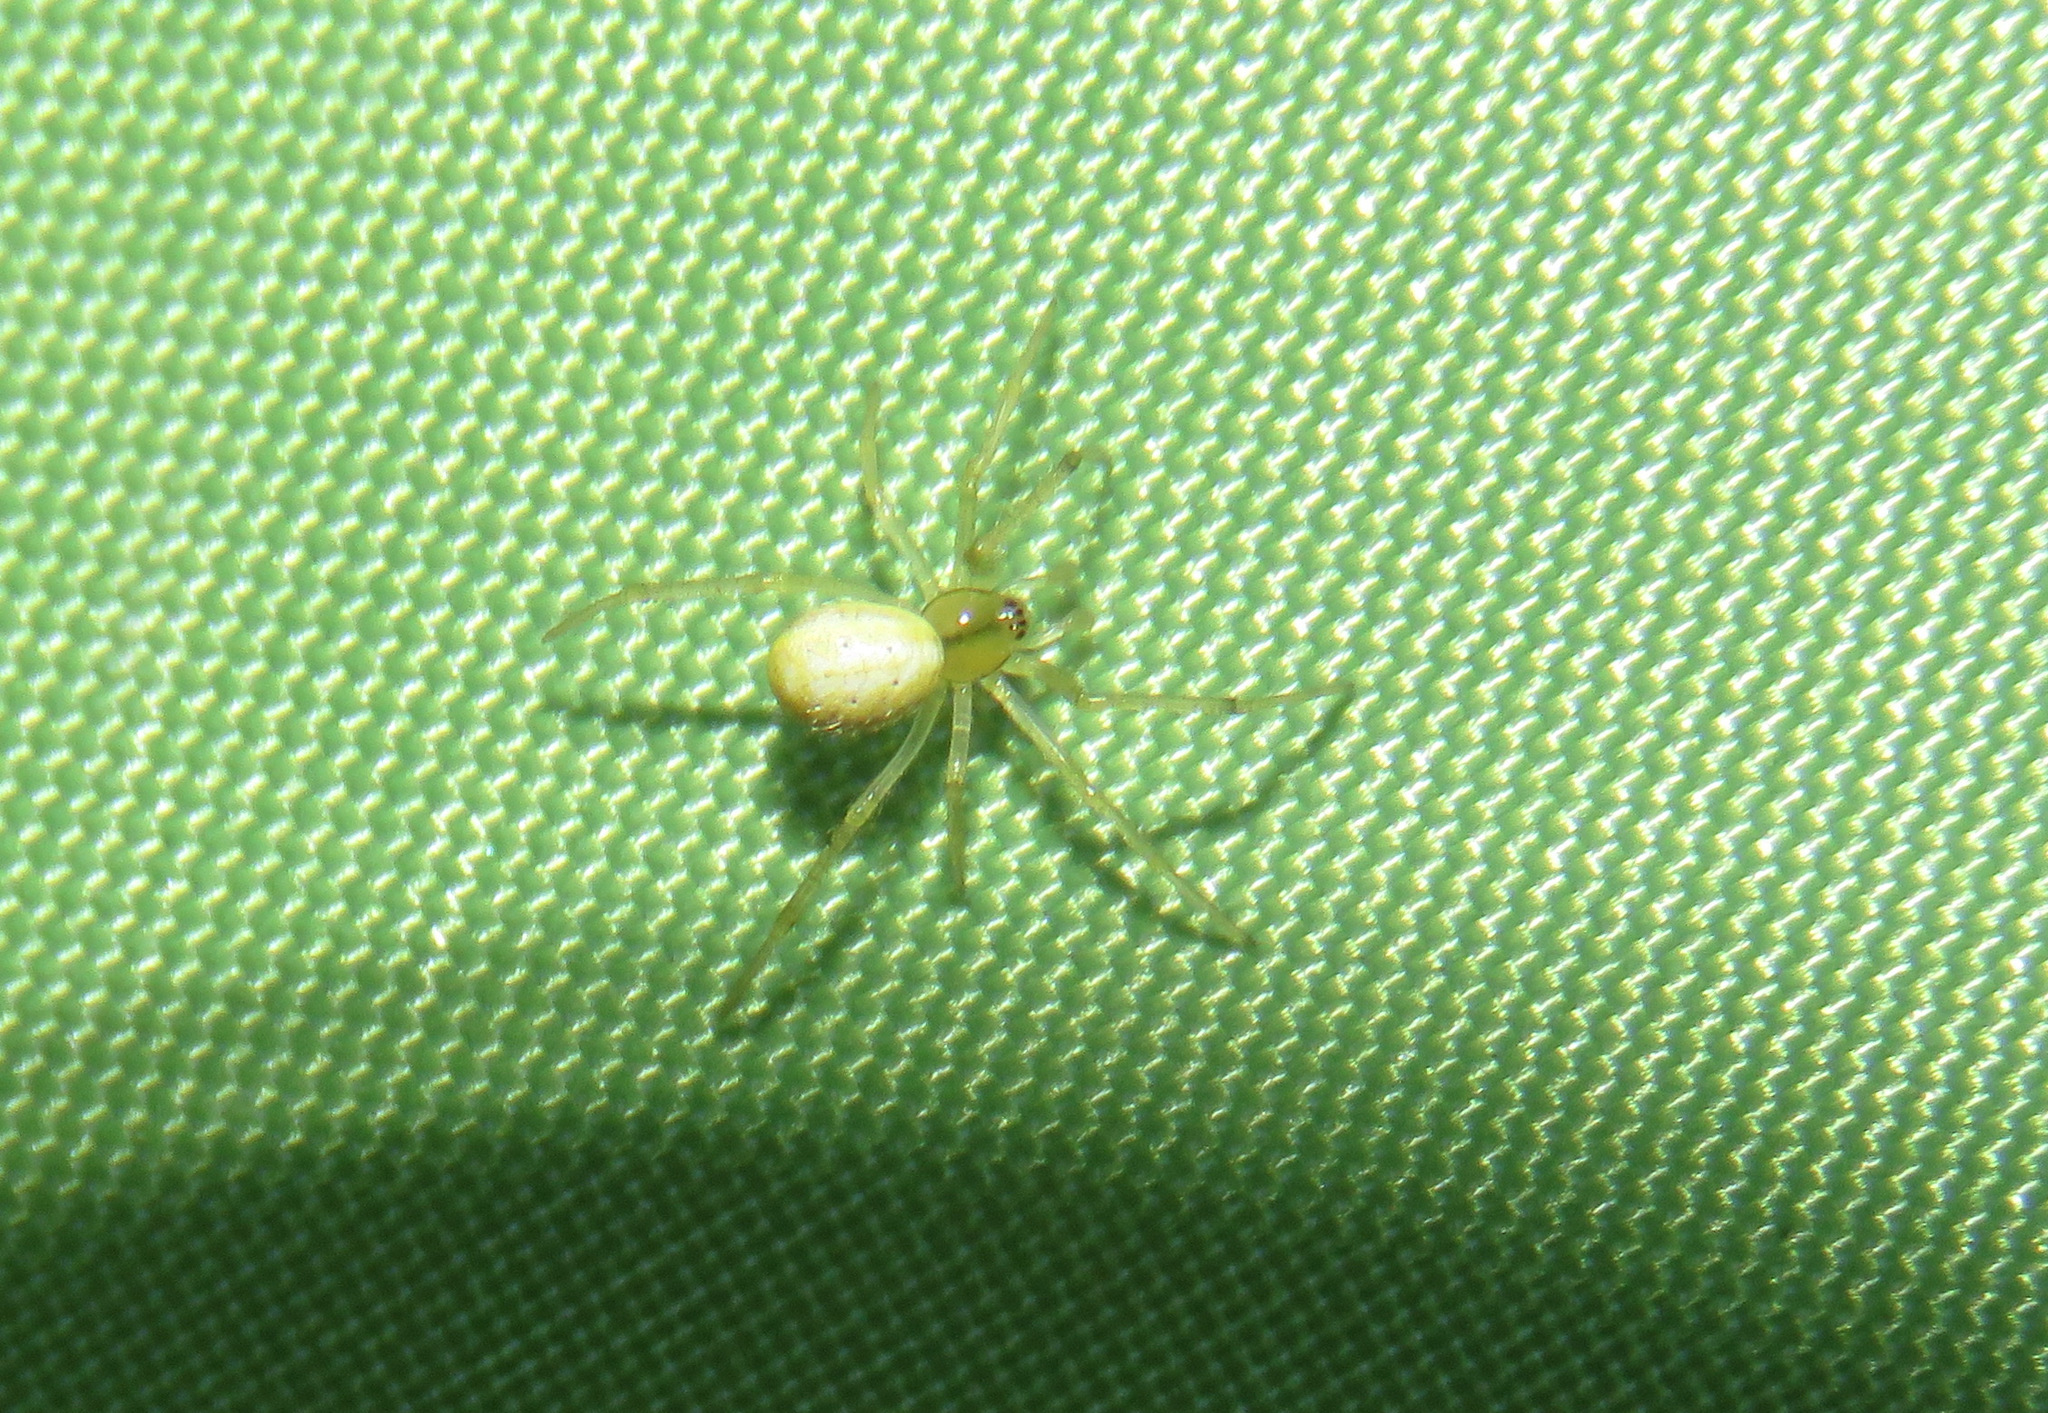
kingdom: Animalia
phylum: Arthropoda
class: Arachnida
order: Araneae
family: Theridiidae
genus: Enoplognatha
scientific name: Enoplognatha ovata
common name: Common candy-striped spider
